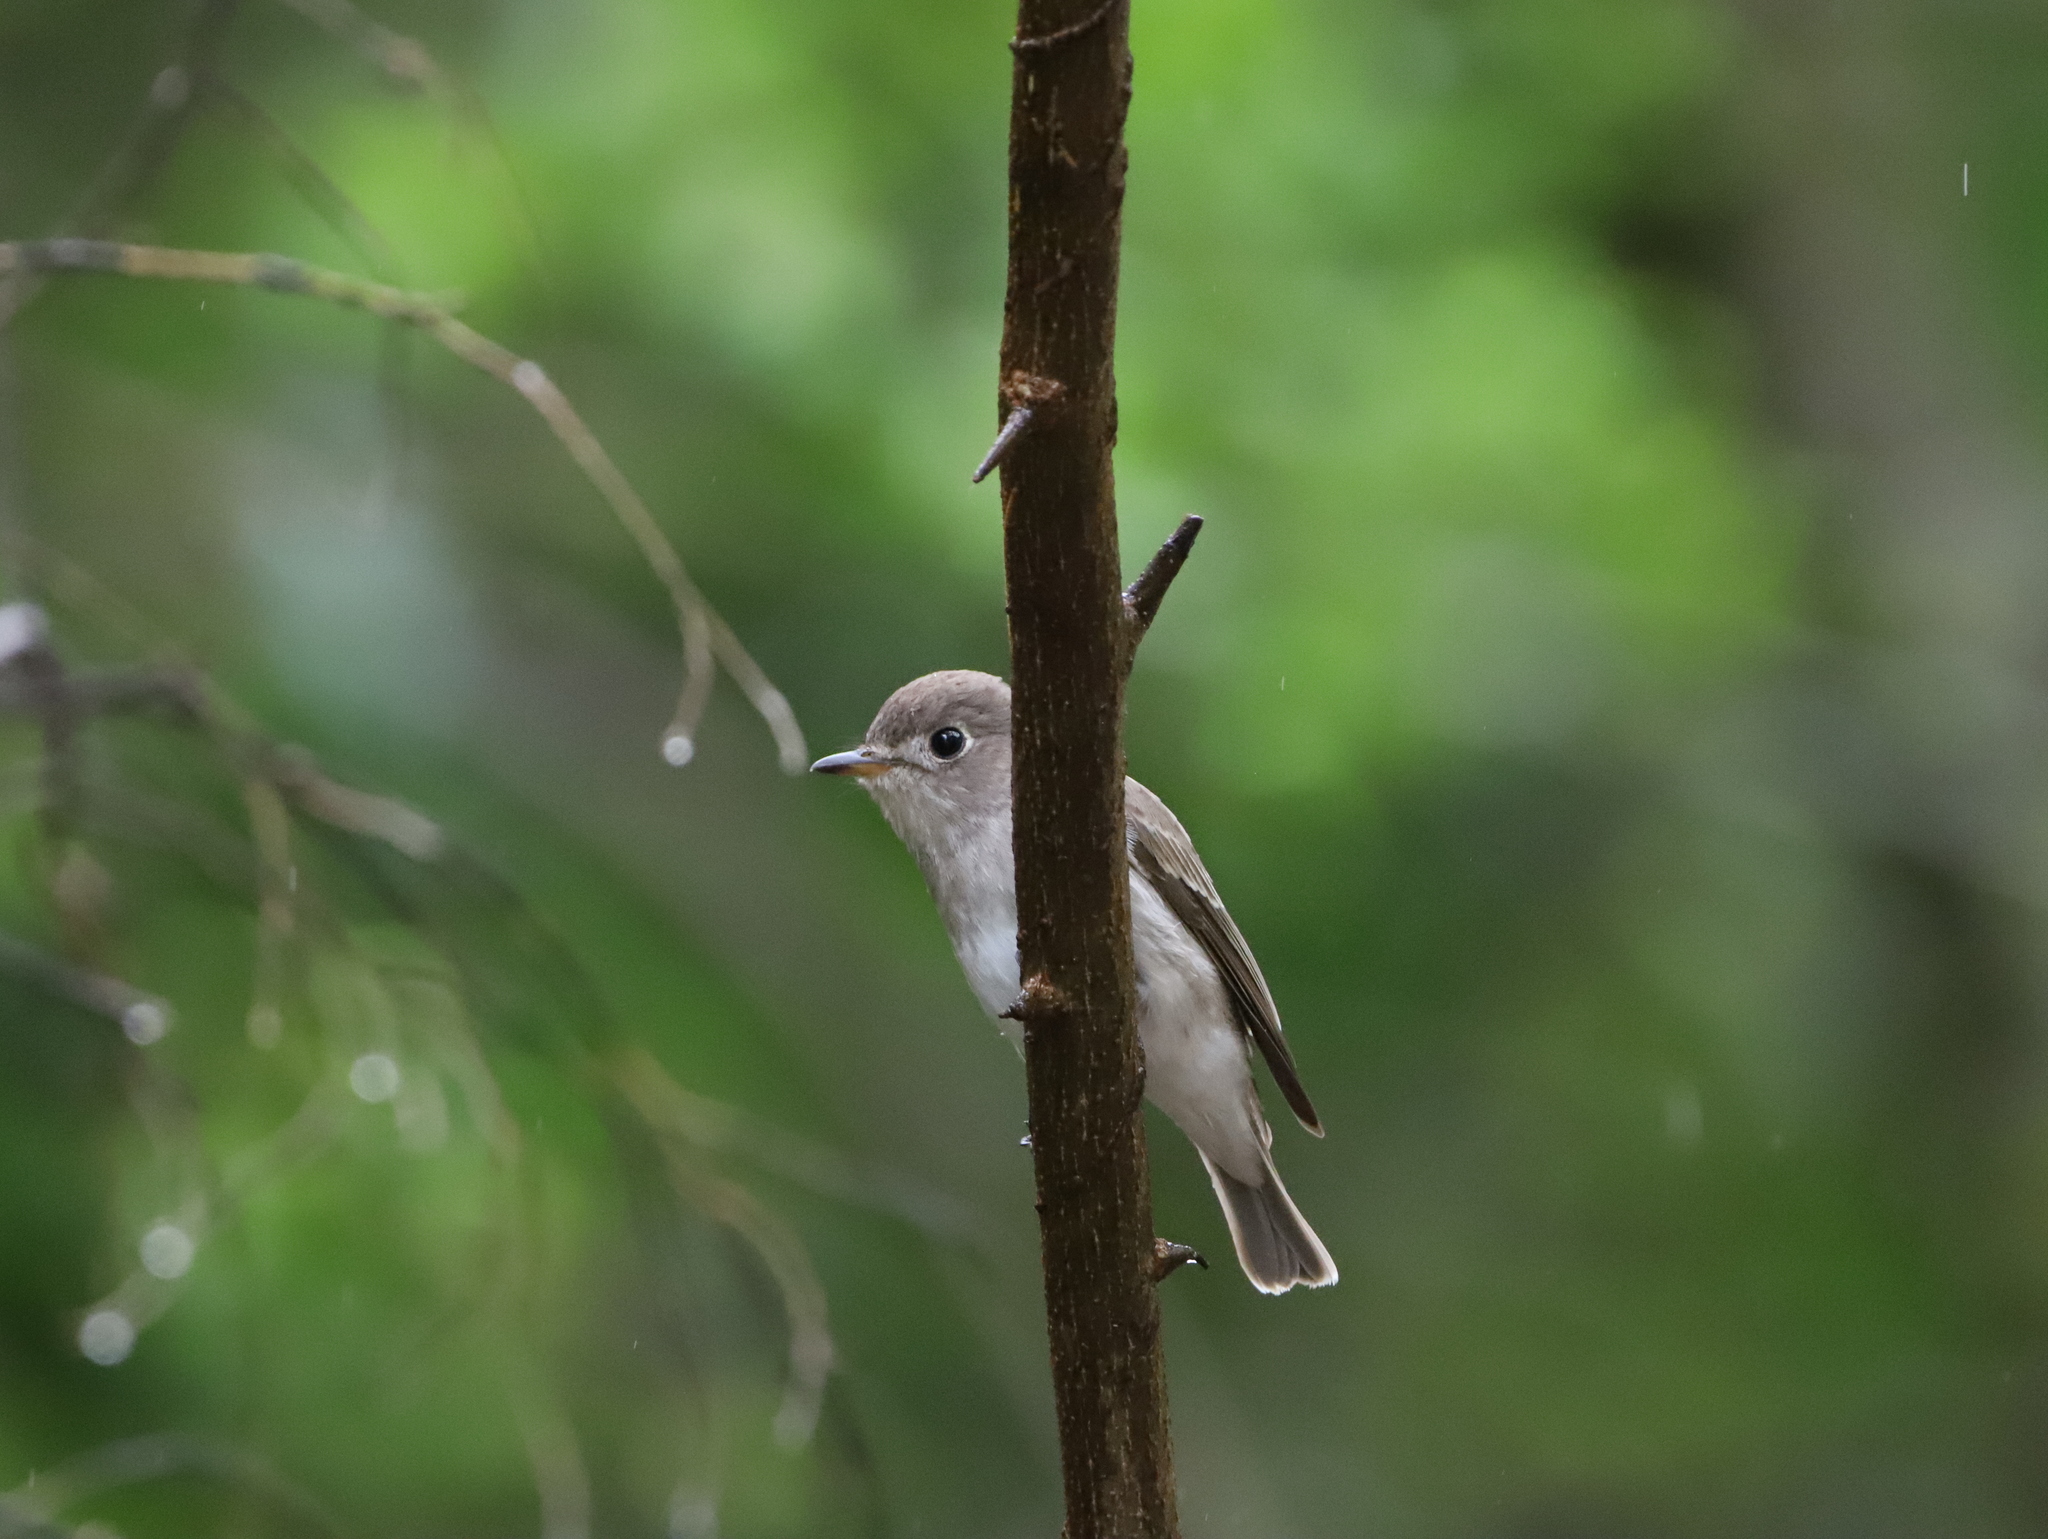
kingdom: Animalia
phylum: Chordata
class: Aves
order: Passeriformes
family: Muscicapidae
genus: Muscicapa
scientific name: Muscicapa latirostris
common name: Asian brown flycatcher
